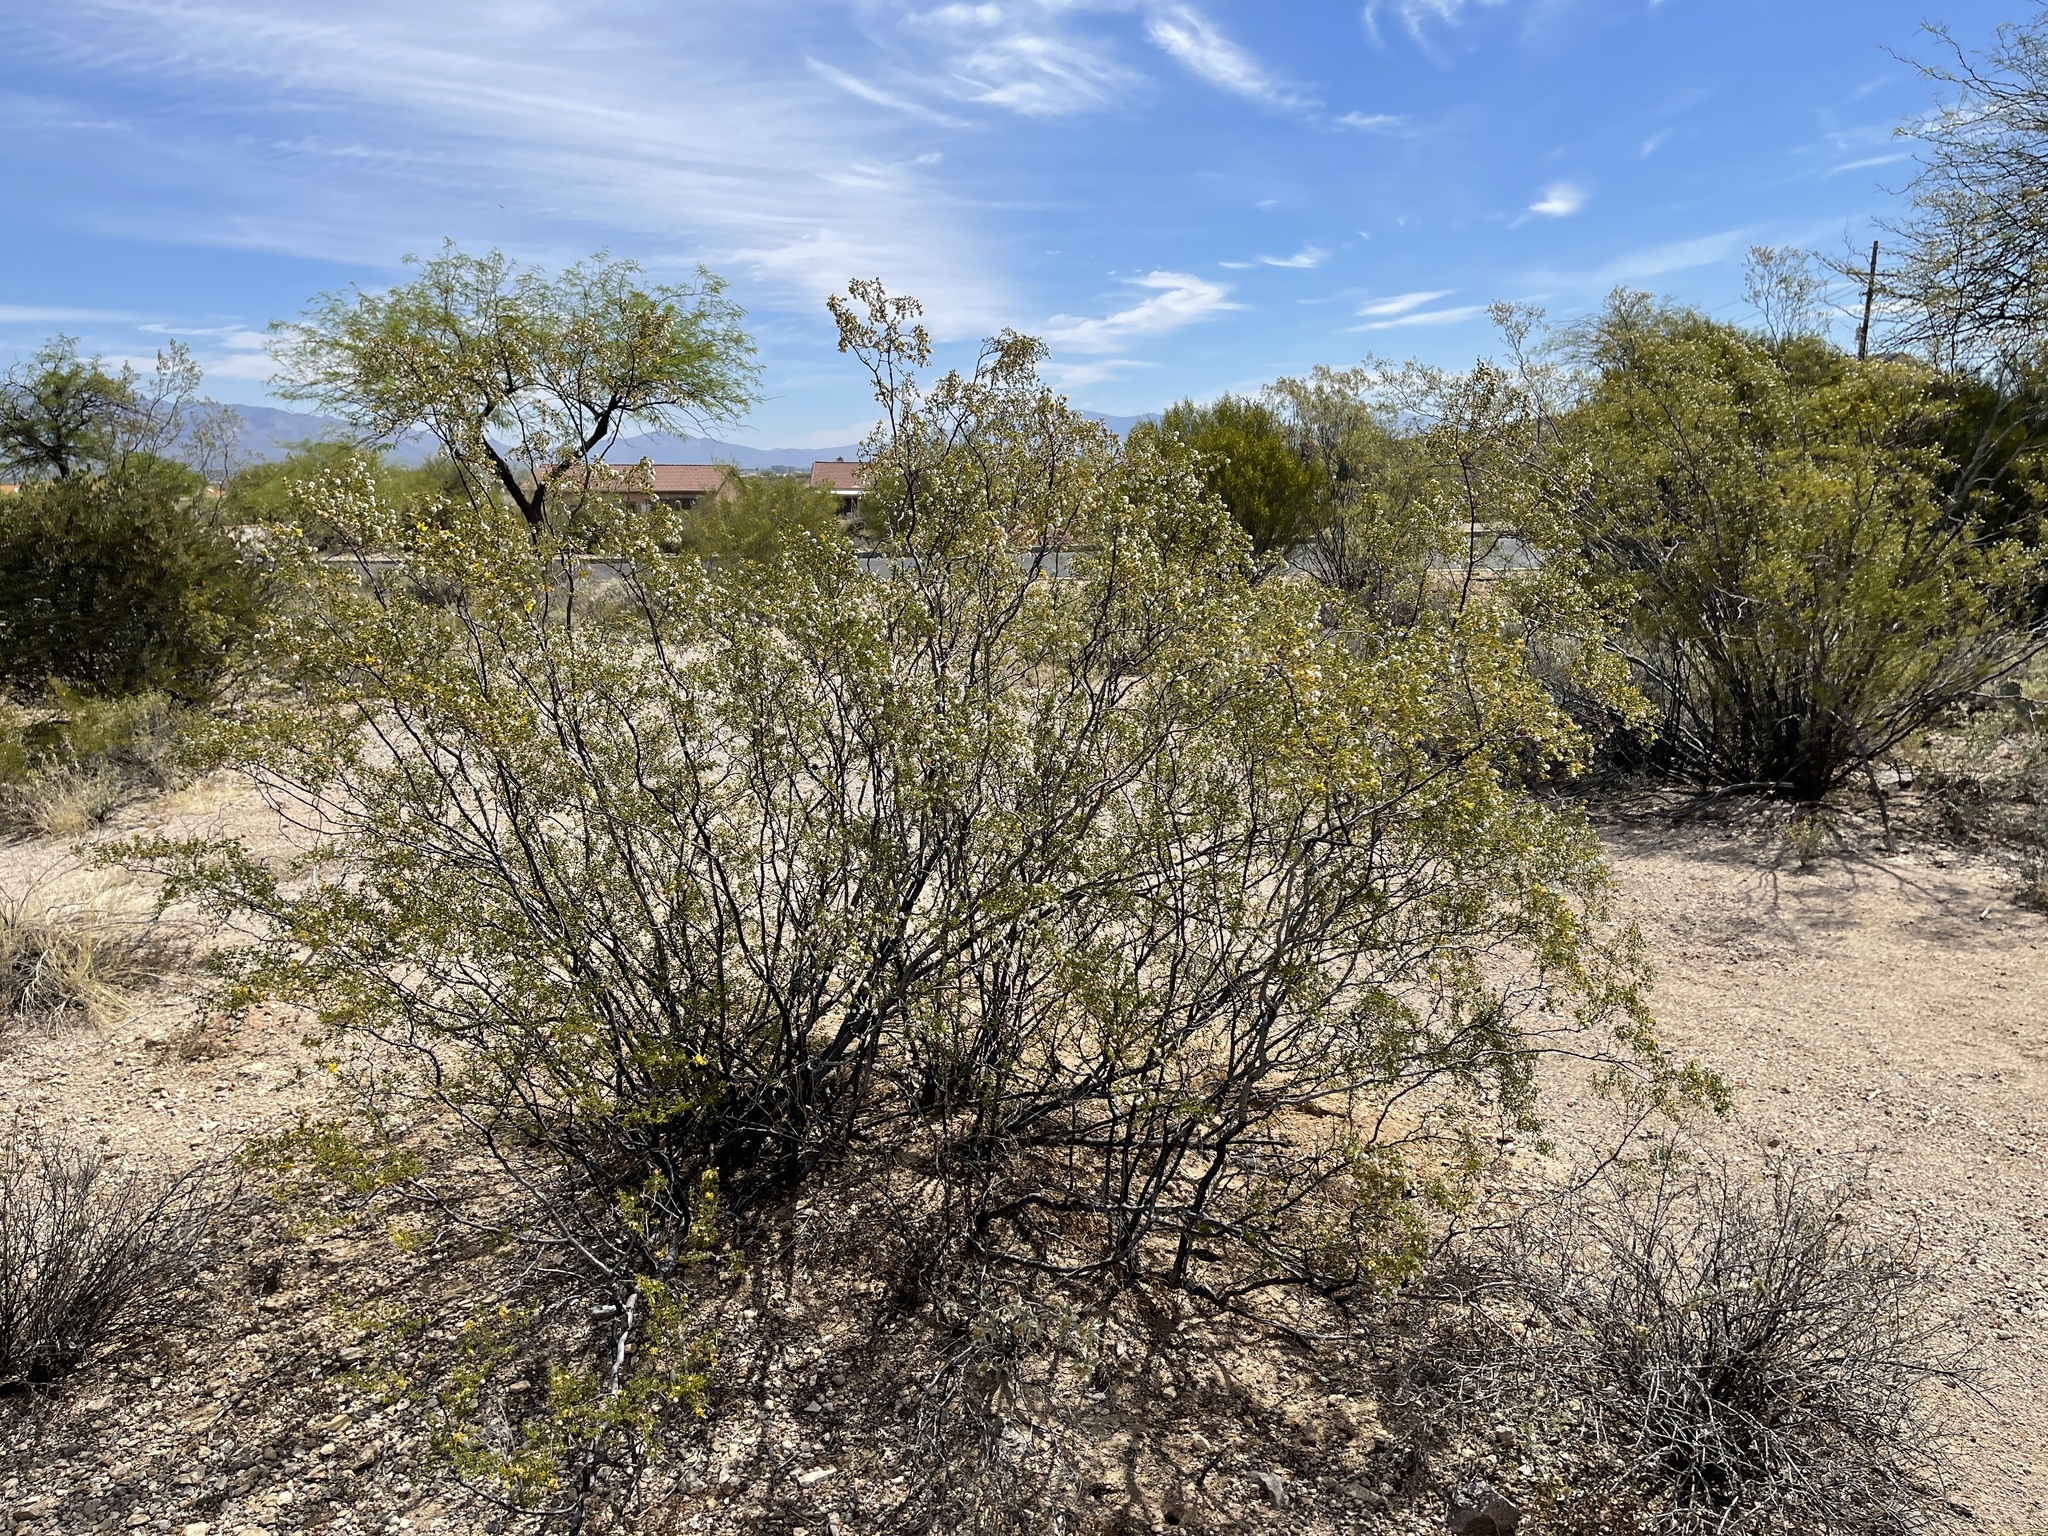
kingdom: Plantae
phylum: Tracheophyta
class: Magnoliopsida
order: Zygophyllales
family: Zygophyllaceae
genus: Larrea
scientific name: Larrea tridentata
